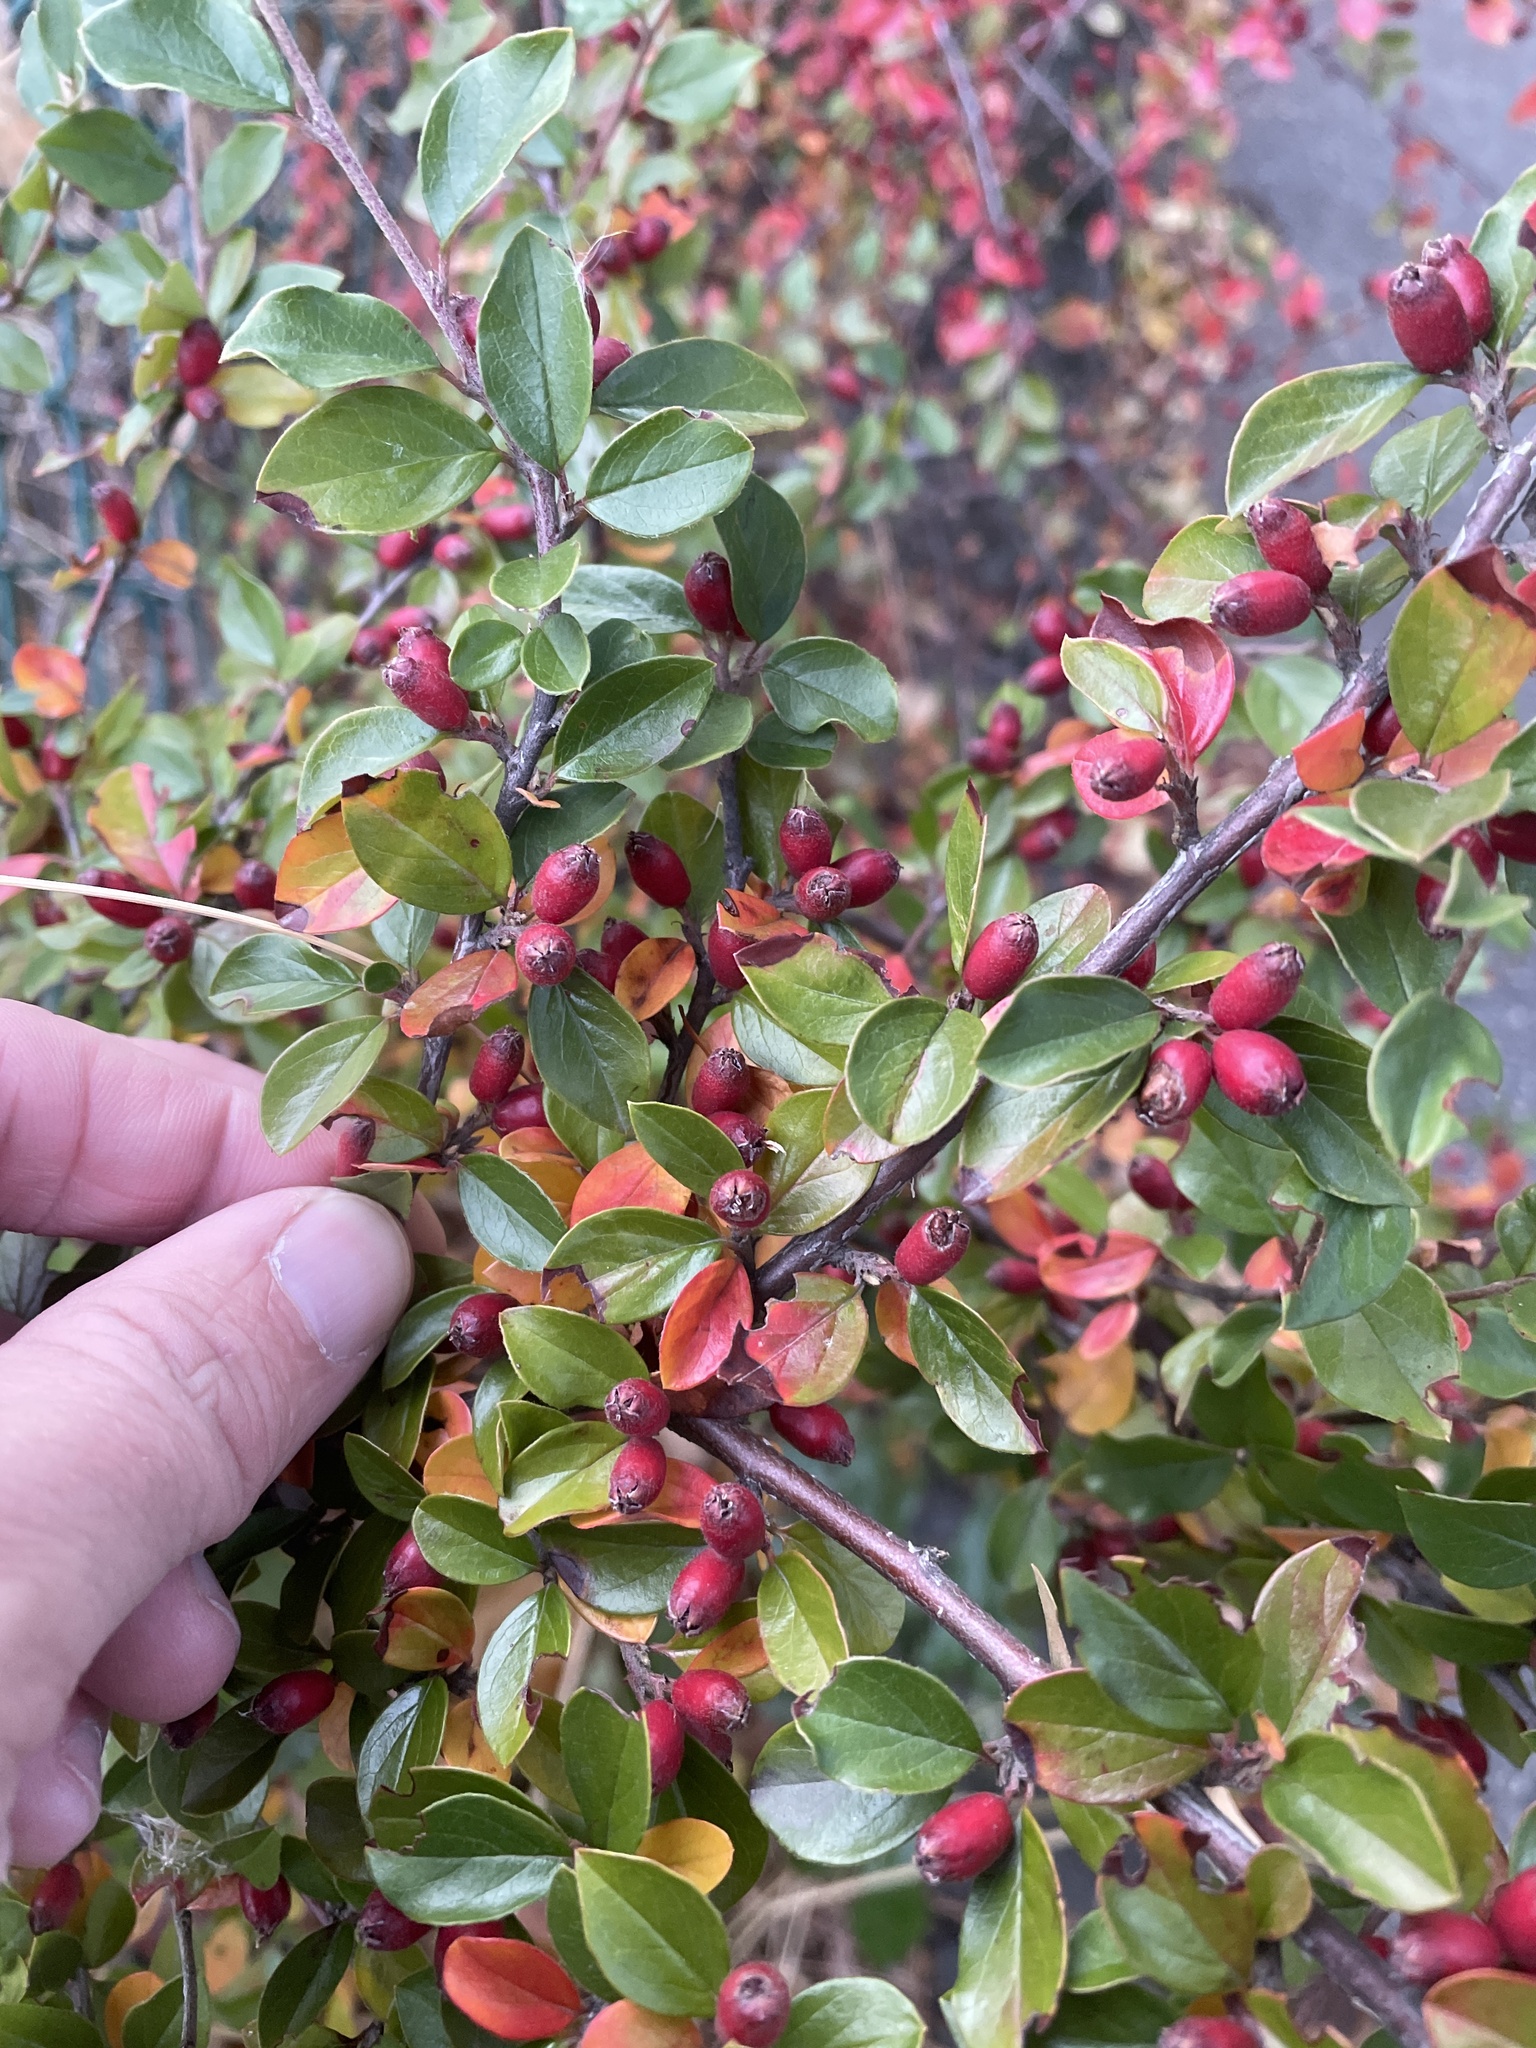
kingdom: Plantae
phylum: Tracheophyta
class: Magnoliopsida
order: Rosales
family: Rosaceae
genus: Cotoneaster
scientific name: Cotoneaster ascendens
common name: Ascending cotoneaster
